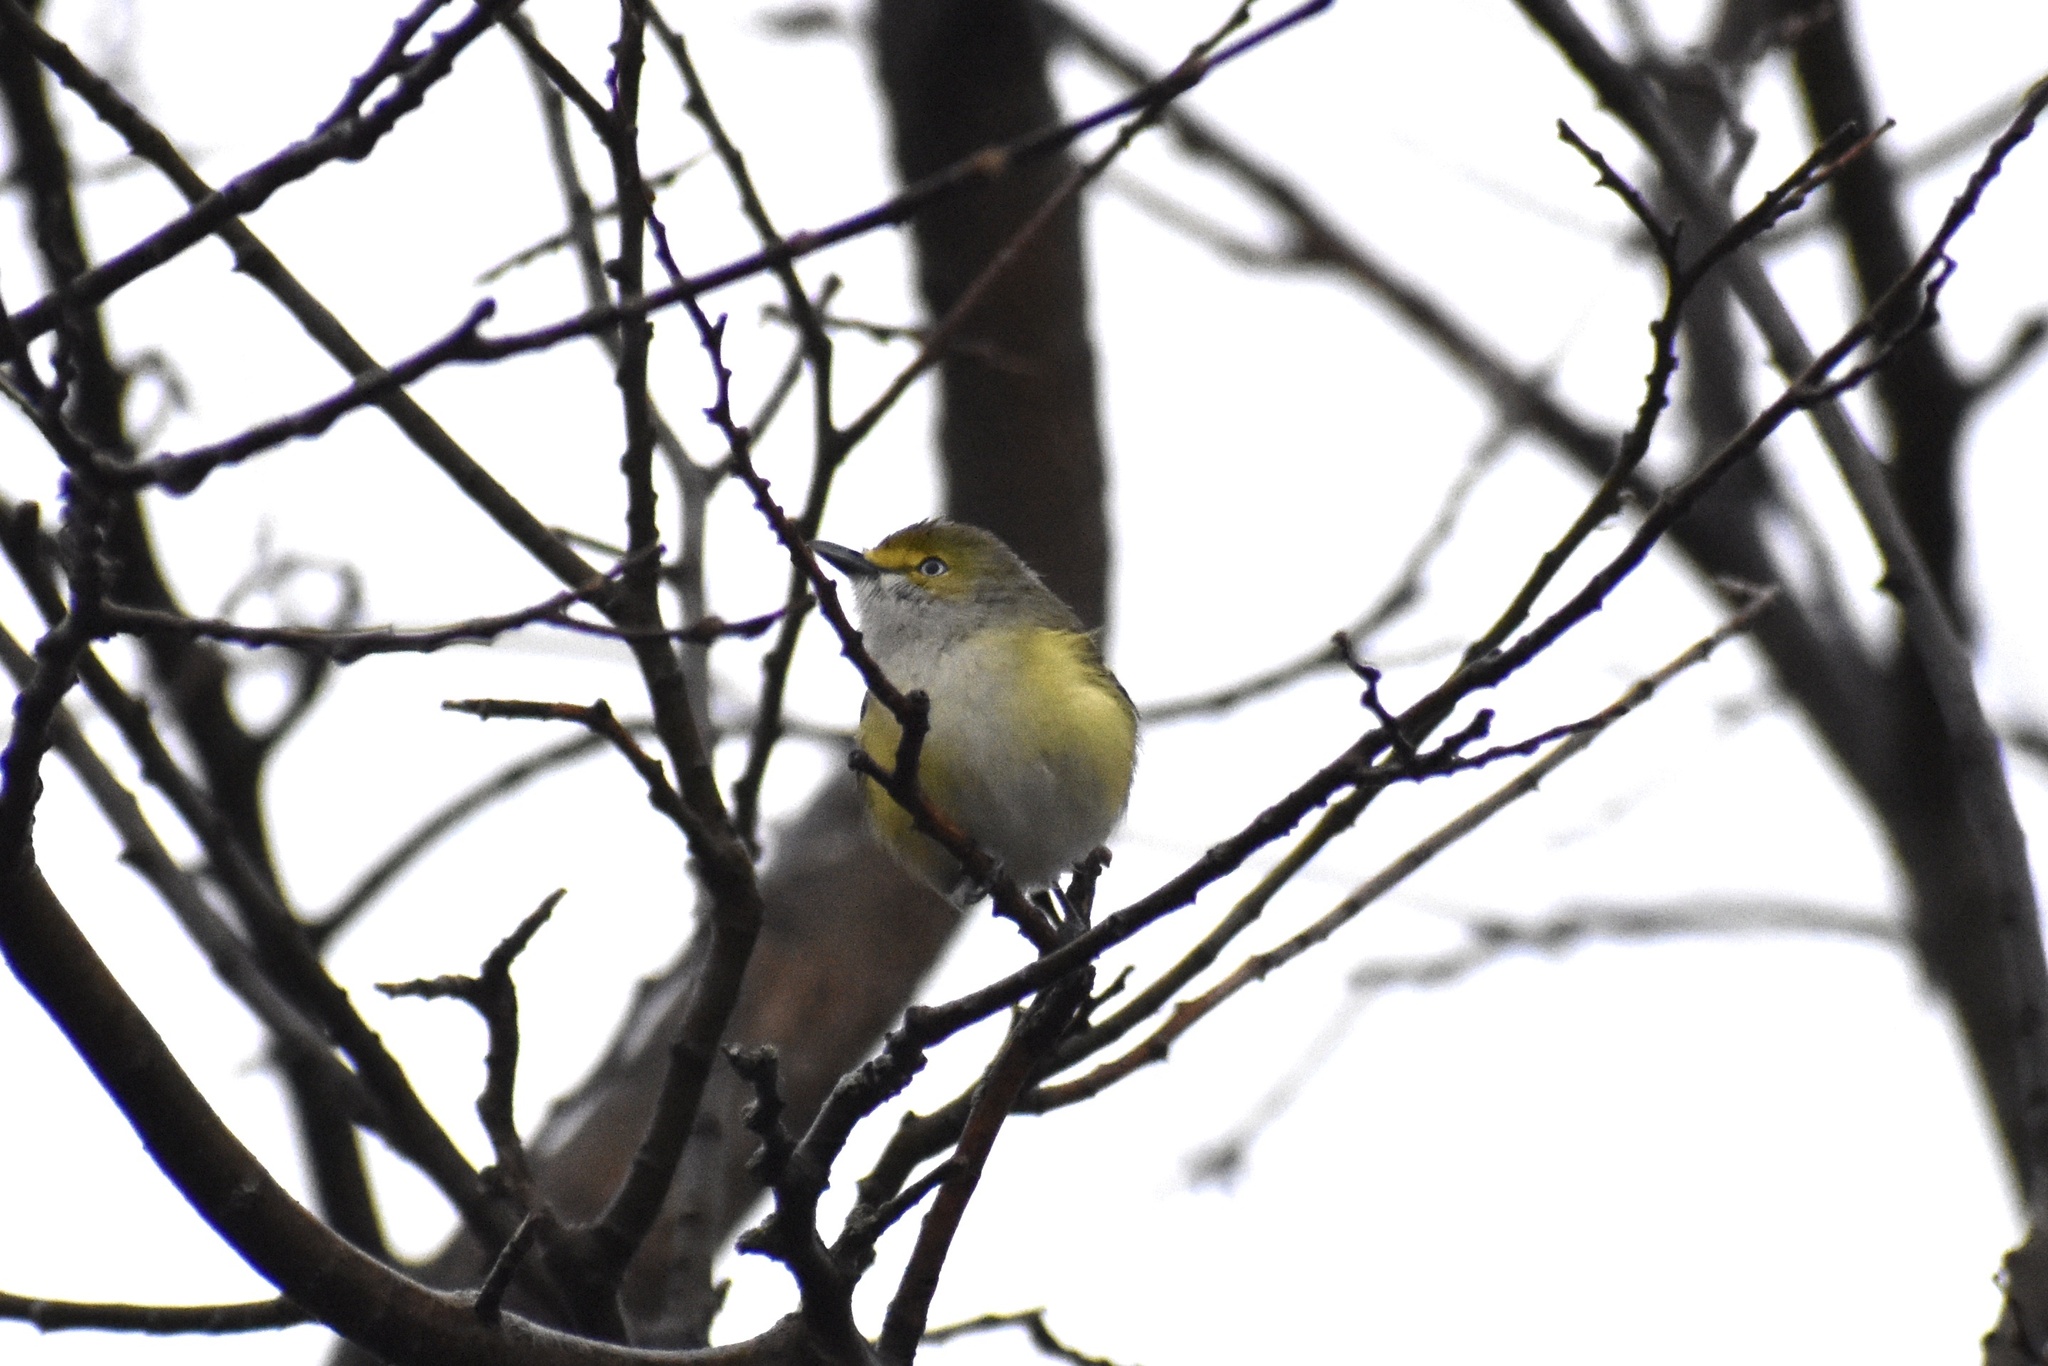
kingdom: Animalia
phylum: Chordata
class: Aves
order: Passeriformes
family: Vireonidae
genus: Vireo
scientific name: Vireo griseus
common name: White-eyed vireo
